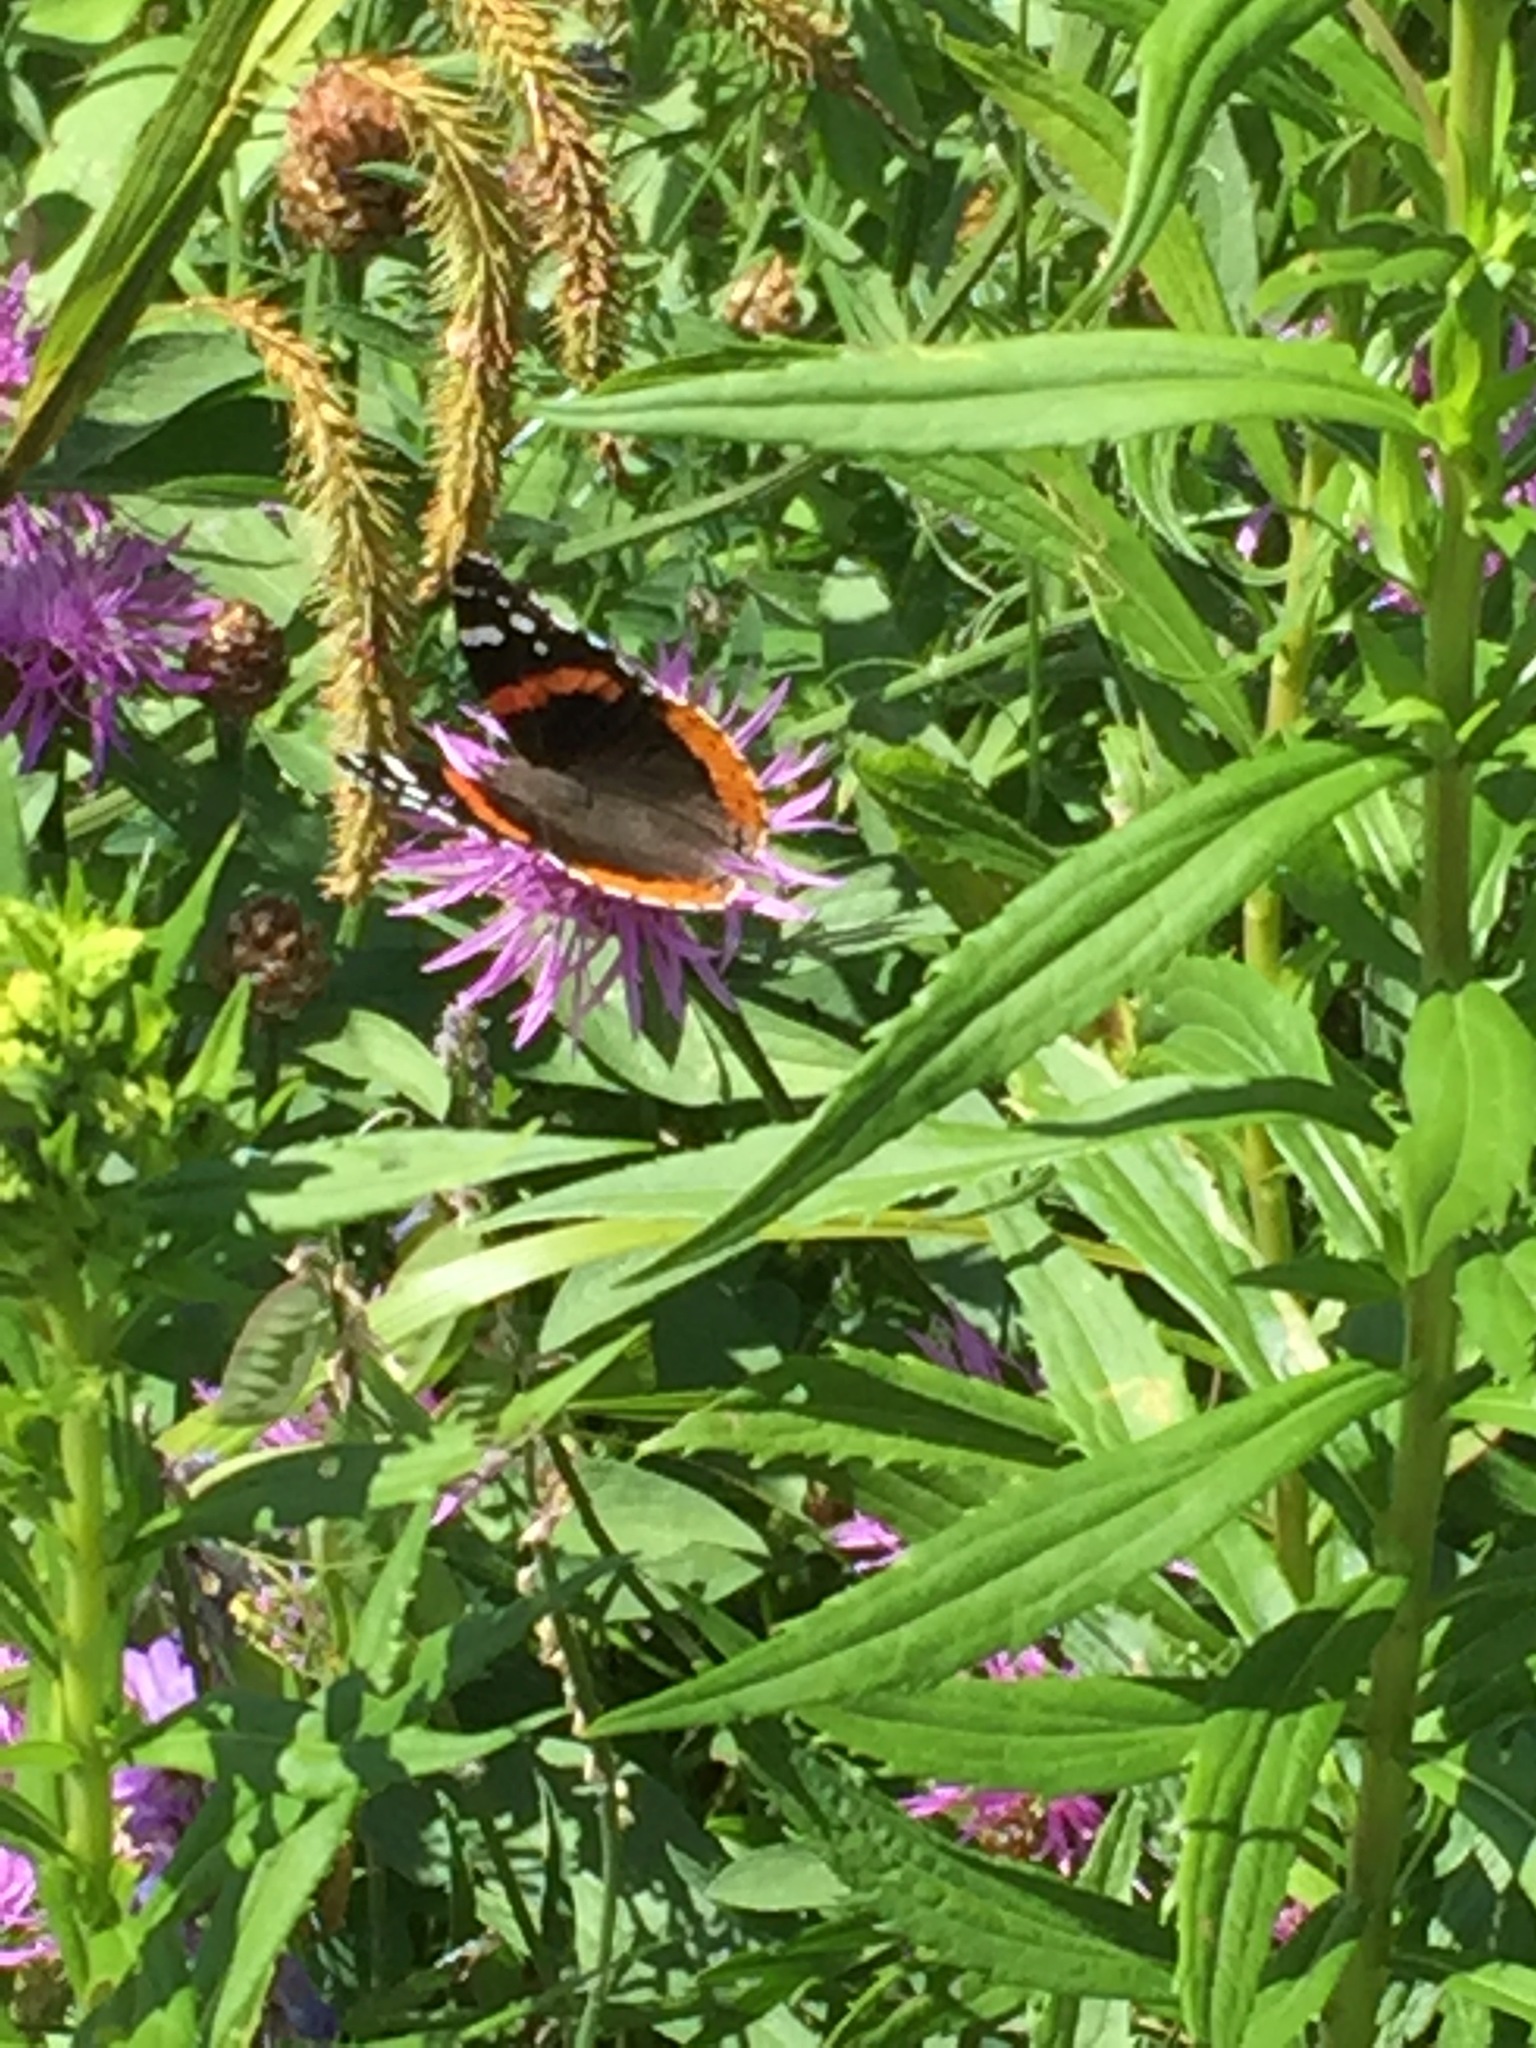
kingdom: Animalia
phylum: Arthropoda
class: Insecta
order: Lepidoptera
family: Nymphalidae
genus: Vanessa
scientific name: Vanessa atalanta
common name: Red admiral
